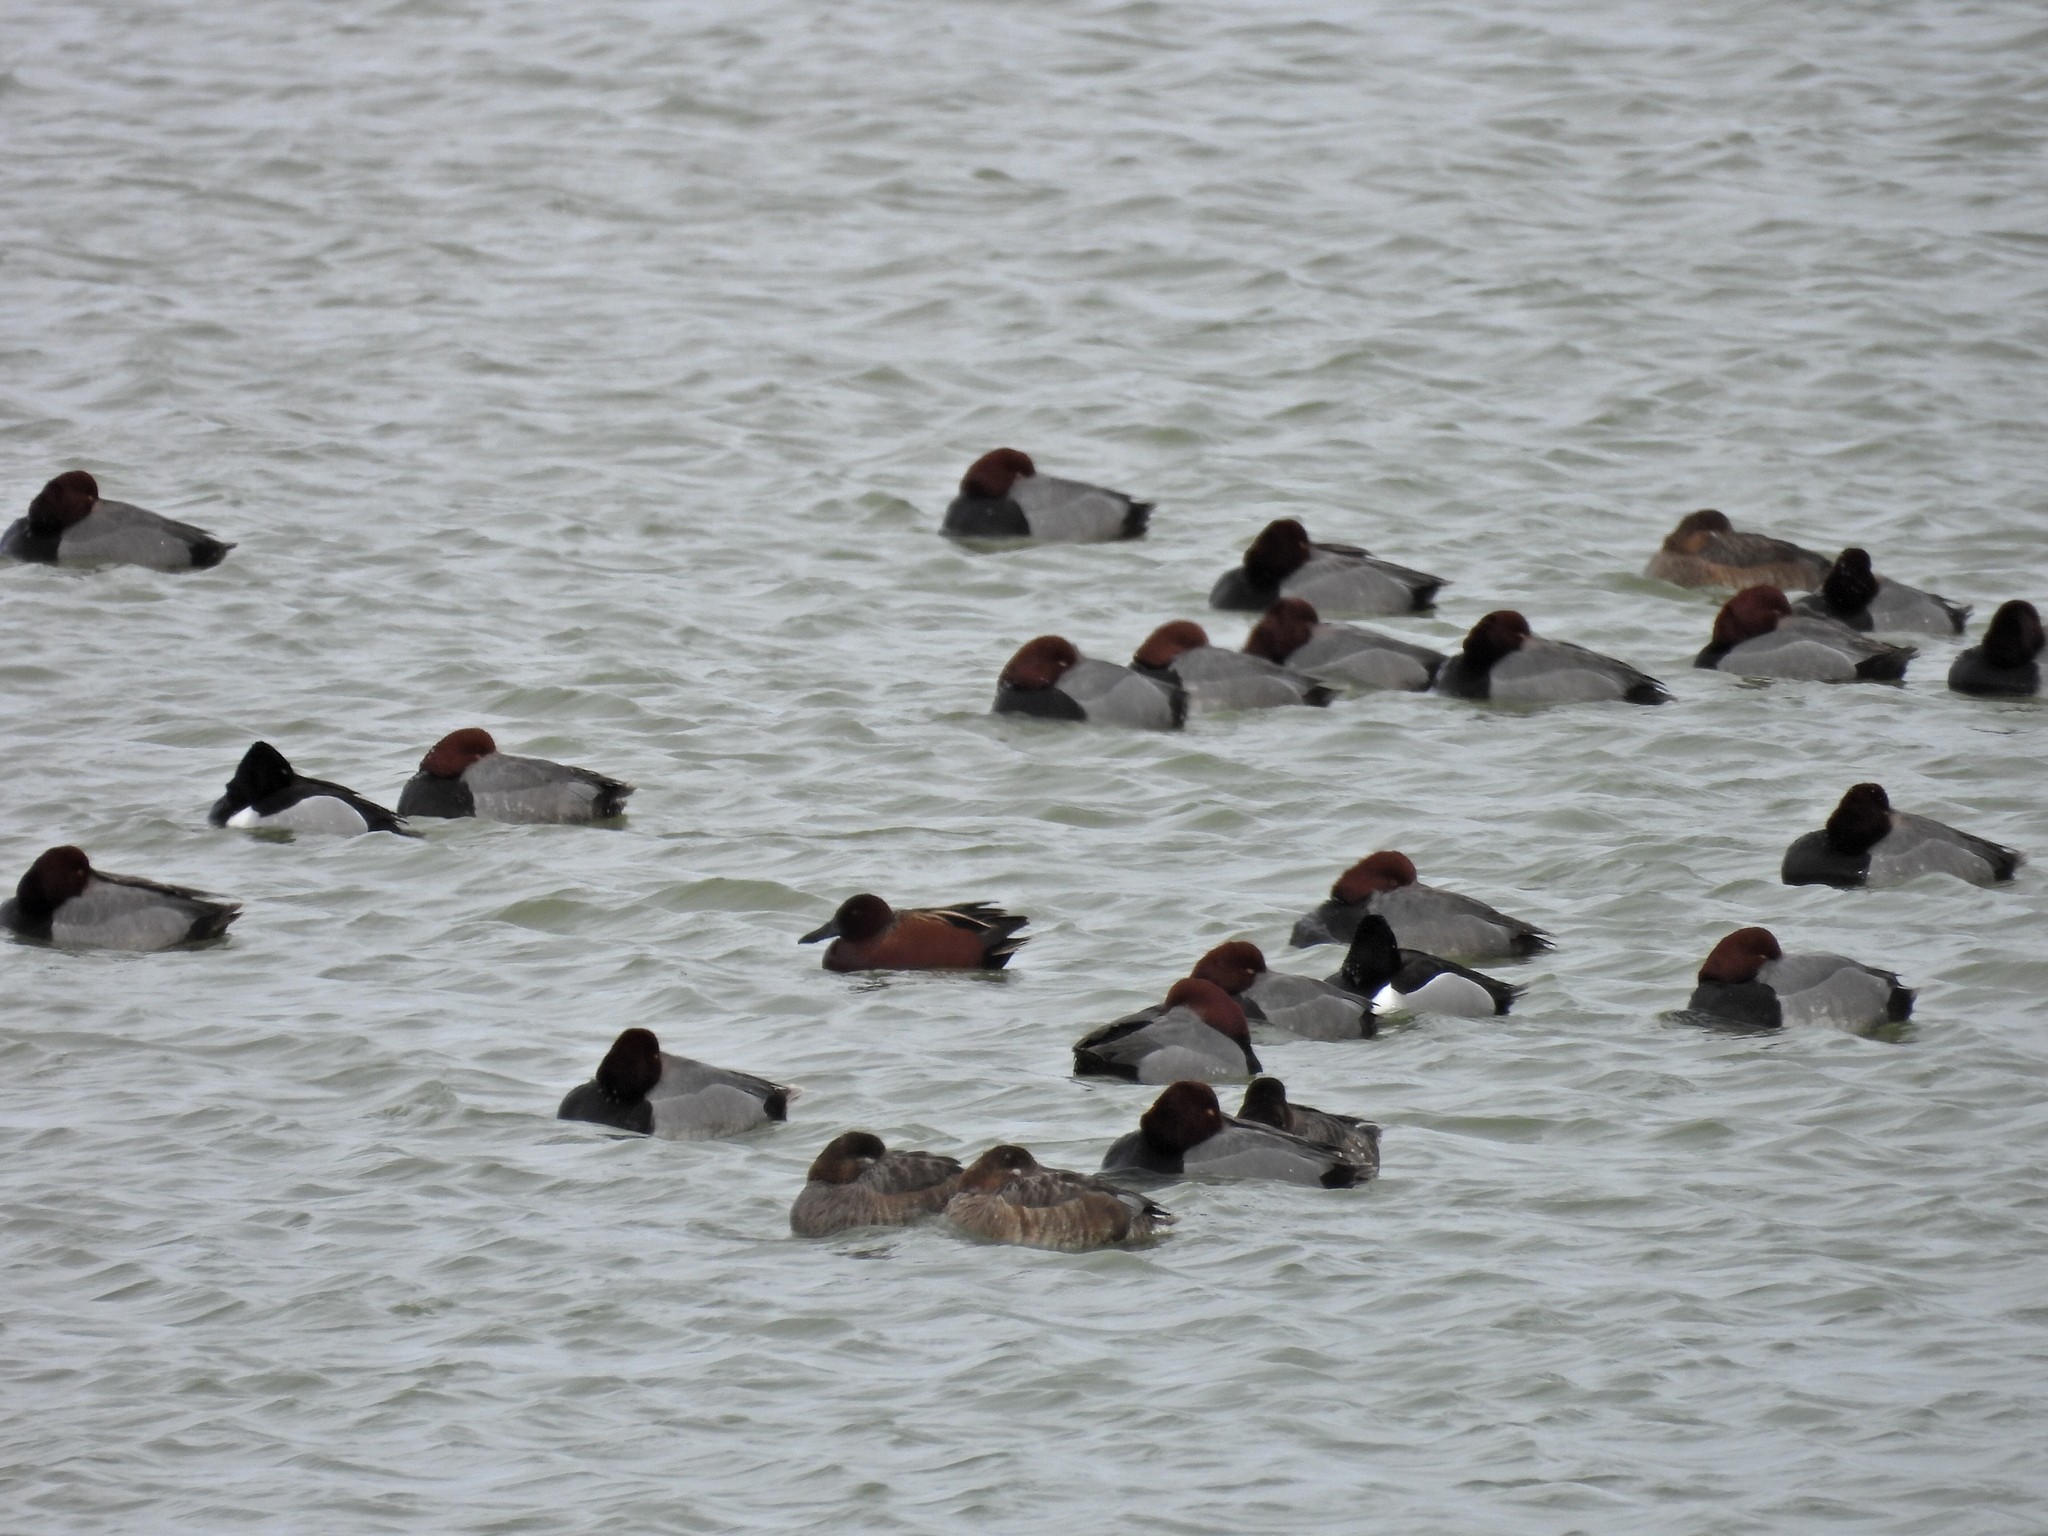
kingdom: Animalia
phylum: Chordata
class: Aves
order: Anseriformes
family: Anatidae
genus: Spatula
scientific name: Spatula cyanoptera
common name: Cinnamon teal
